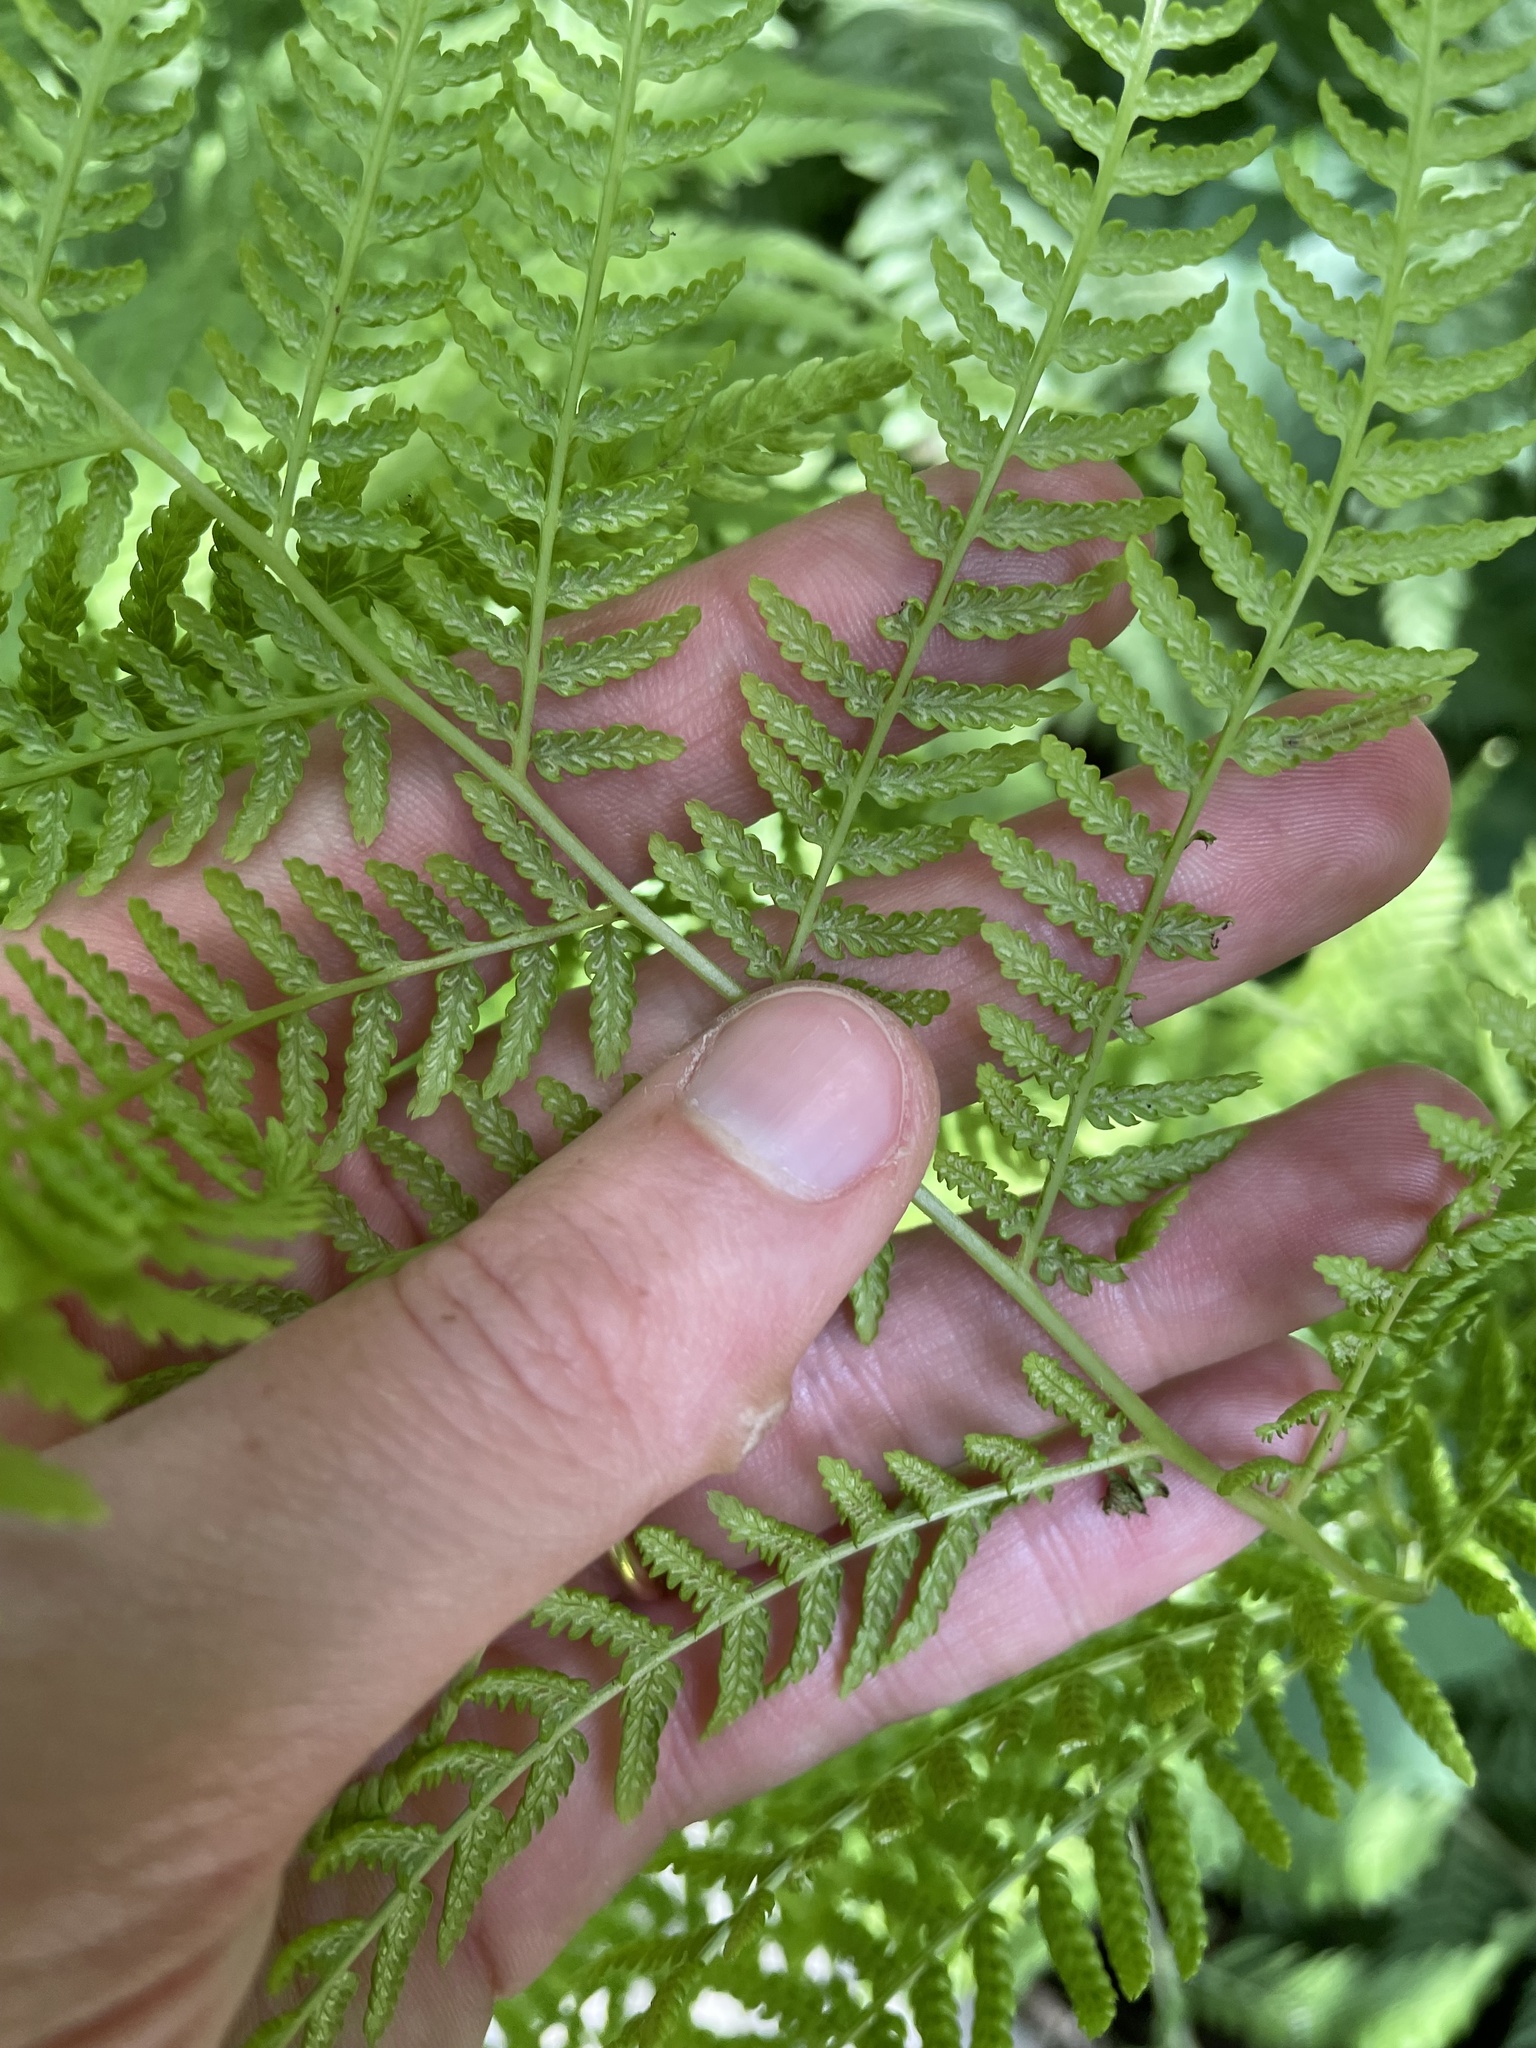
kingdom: Plantae
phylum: Tracheophyta
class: Polypodiopsida
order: Polypodiales
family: Athyriaceae
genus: Athyrium
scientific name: Athyrium angustum
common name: Northern lady fern
